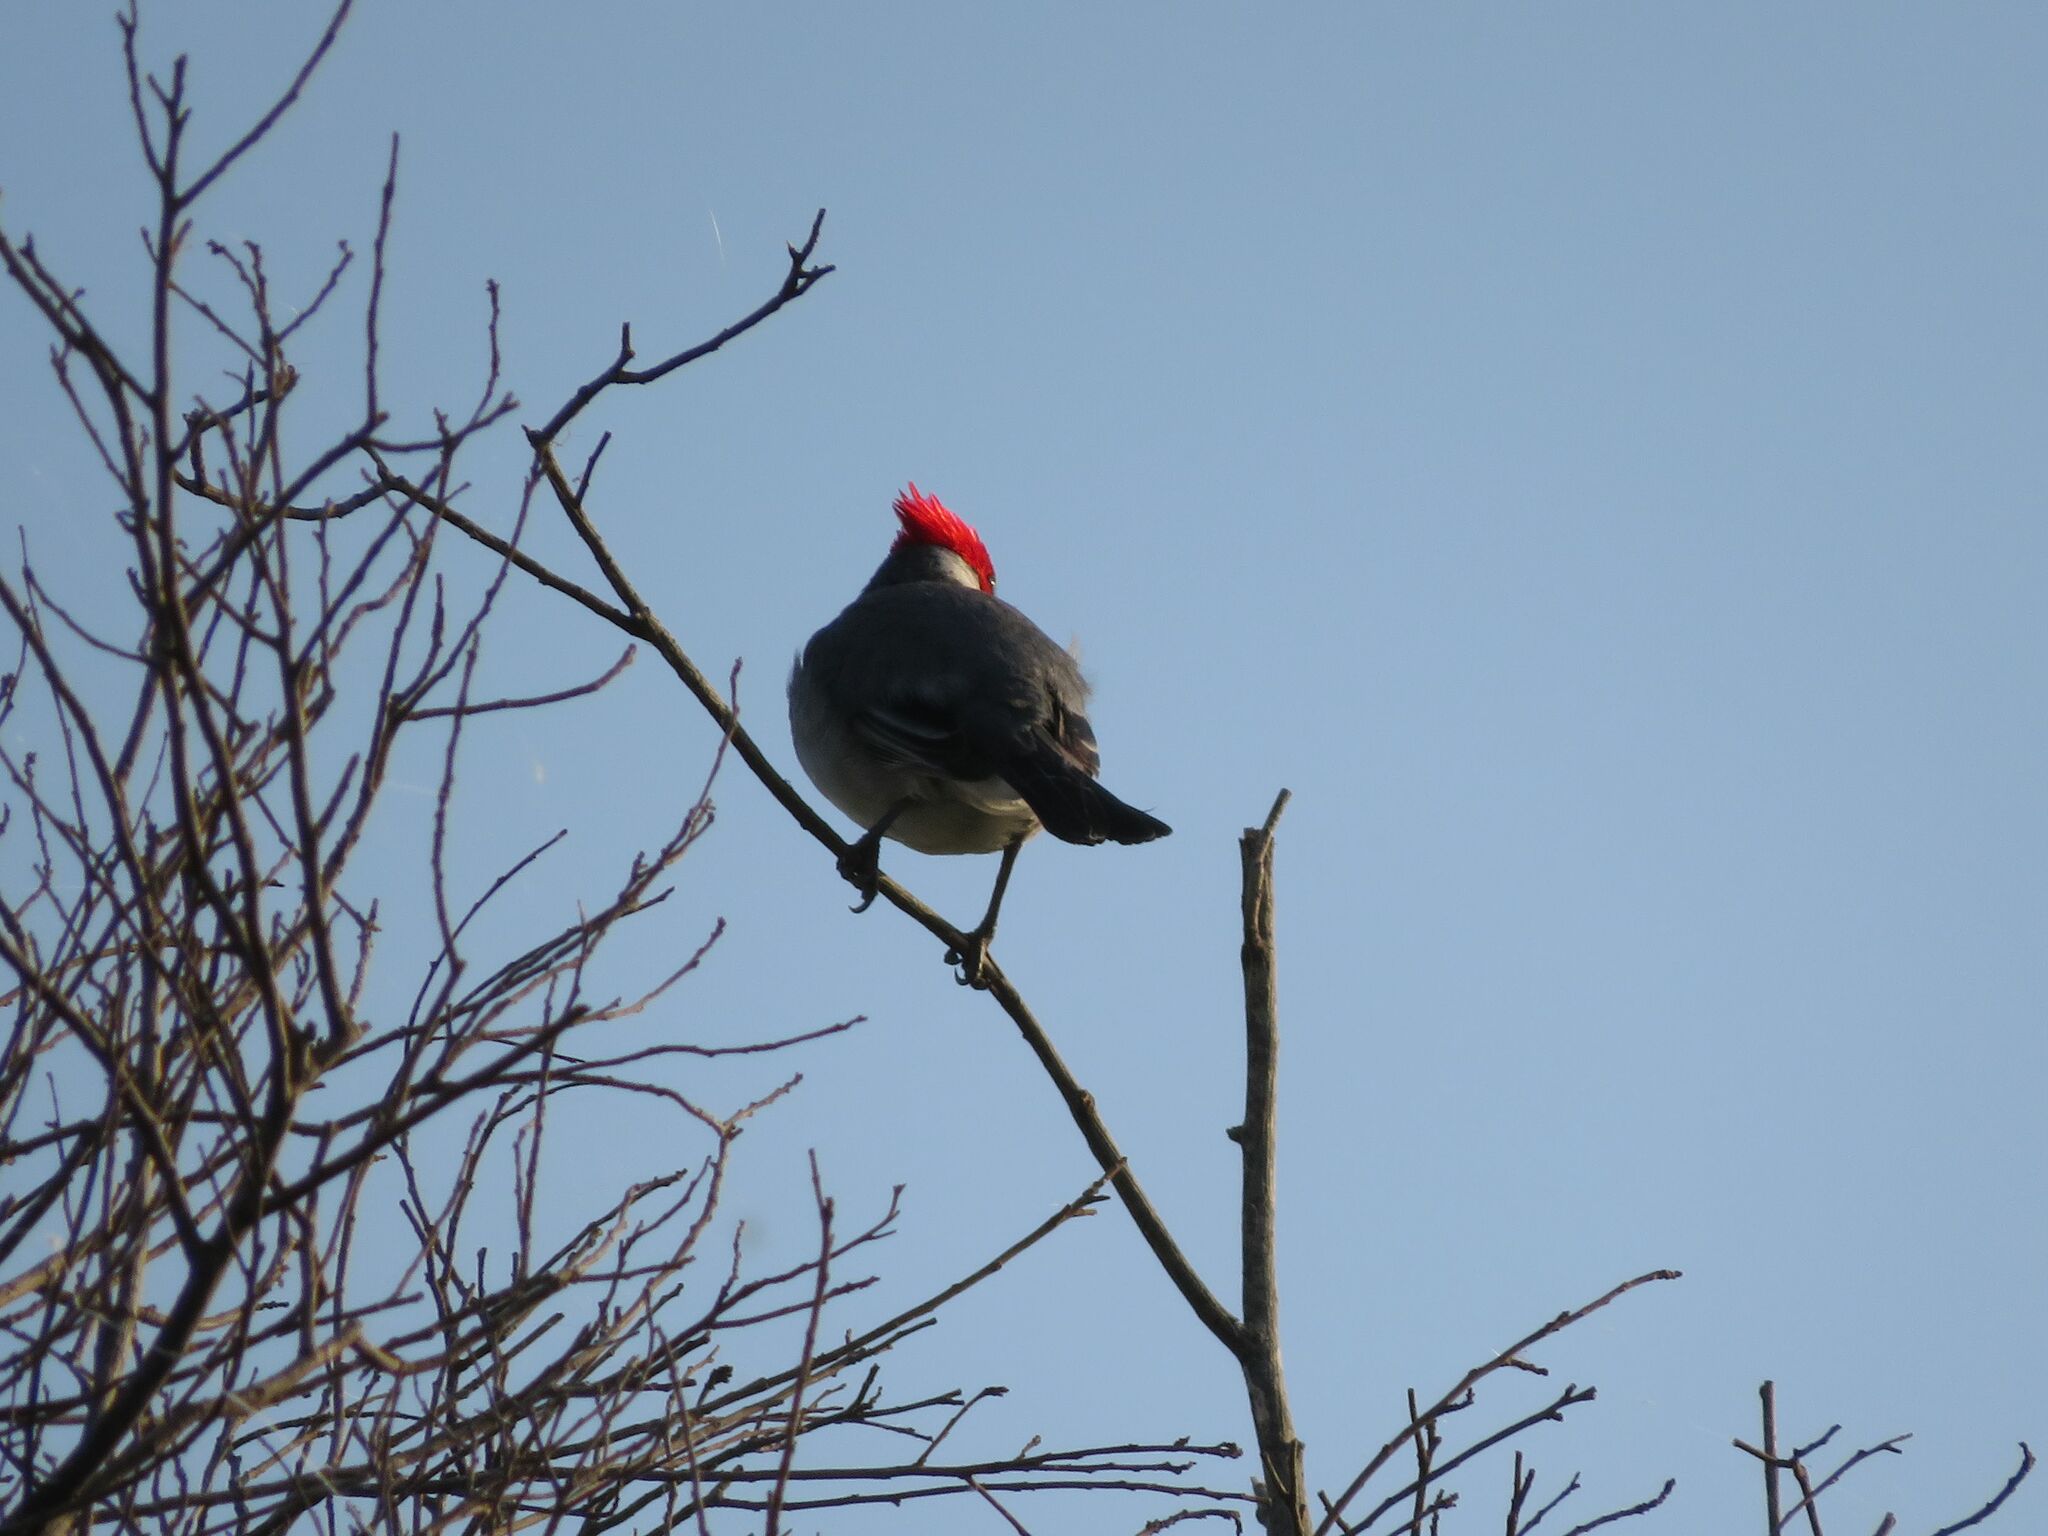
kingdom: Animalia
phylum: Chordata
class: Aves
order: Passeriformes
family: Thraupidae
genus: Paroaria
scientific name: Paroaria coronata
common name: Red-crested cardinal
